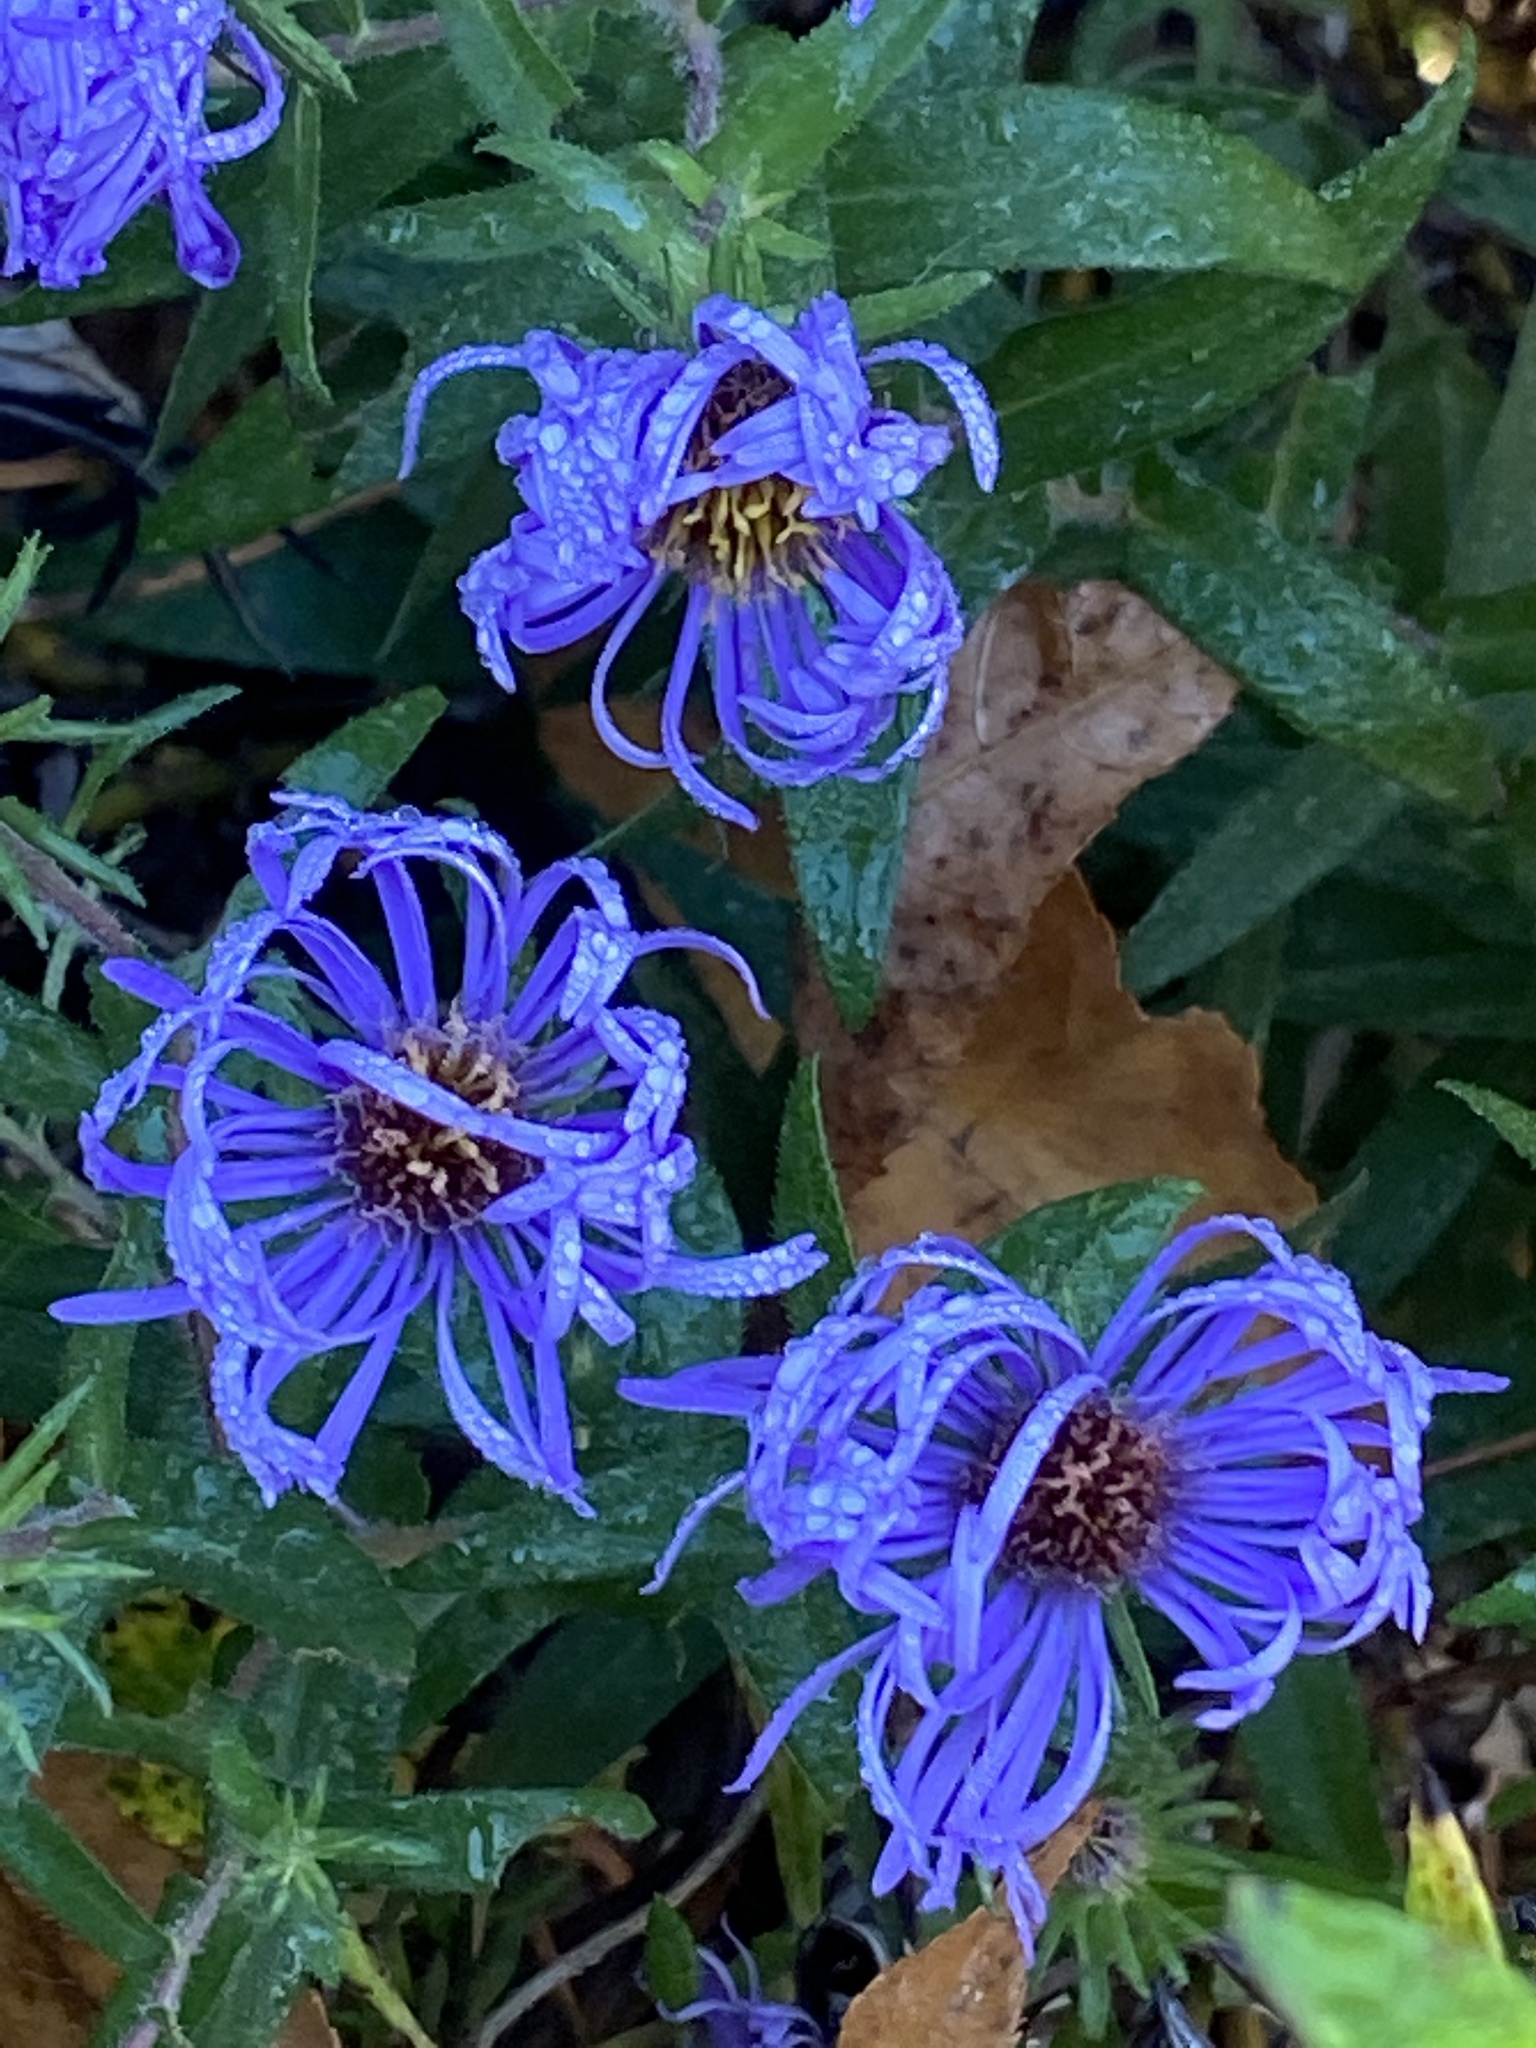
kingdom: Plantae
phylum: Tracheophyta
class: Magnoliopsida
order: Asterales
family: Asteraceae
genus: Symphyotrichum
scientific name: Symphyotrichum novae-angliae
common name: Michaelmas daisy
